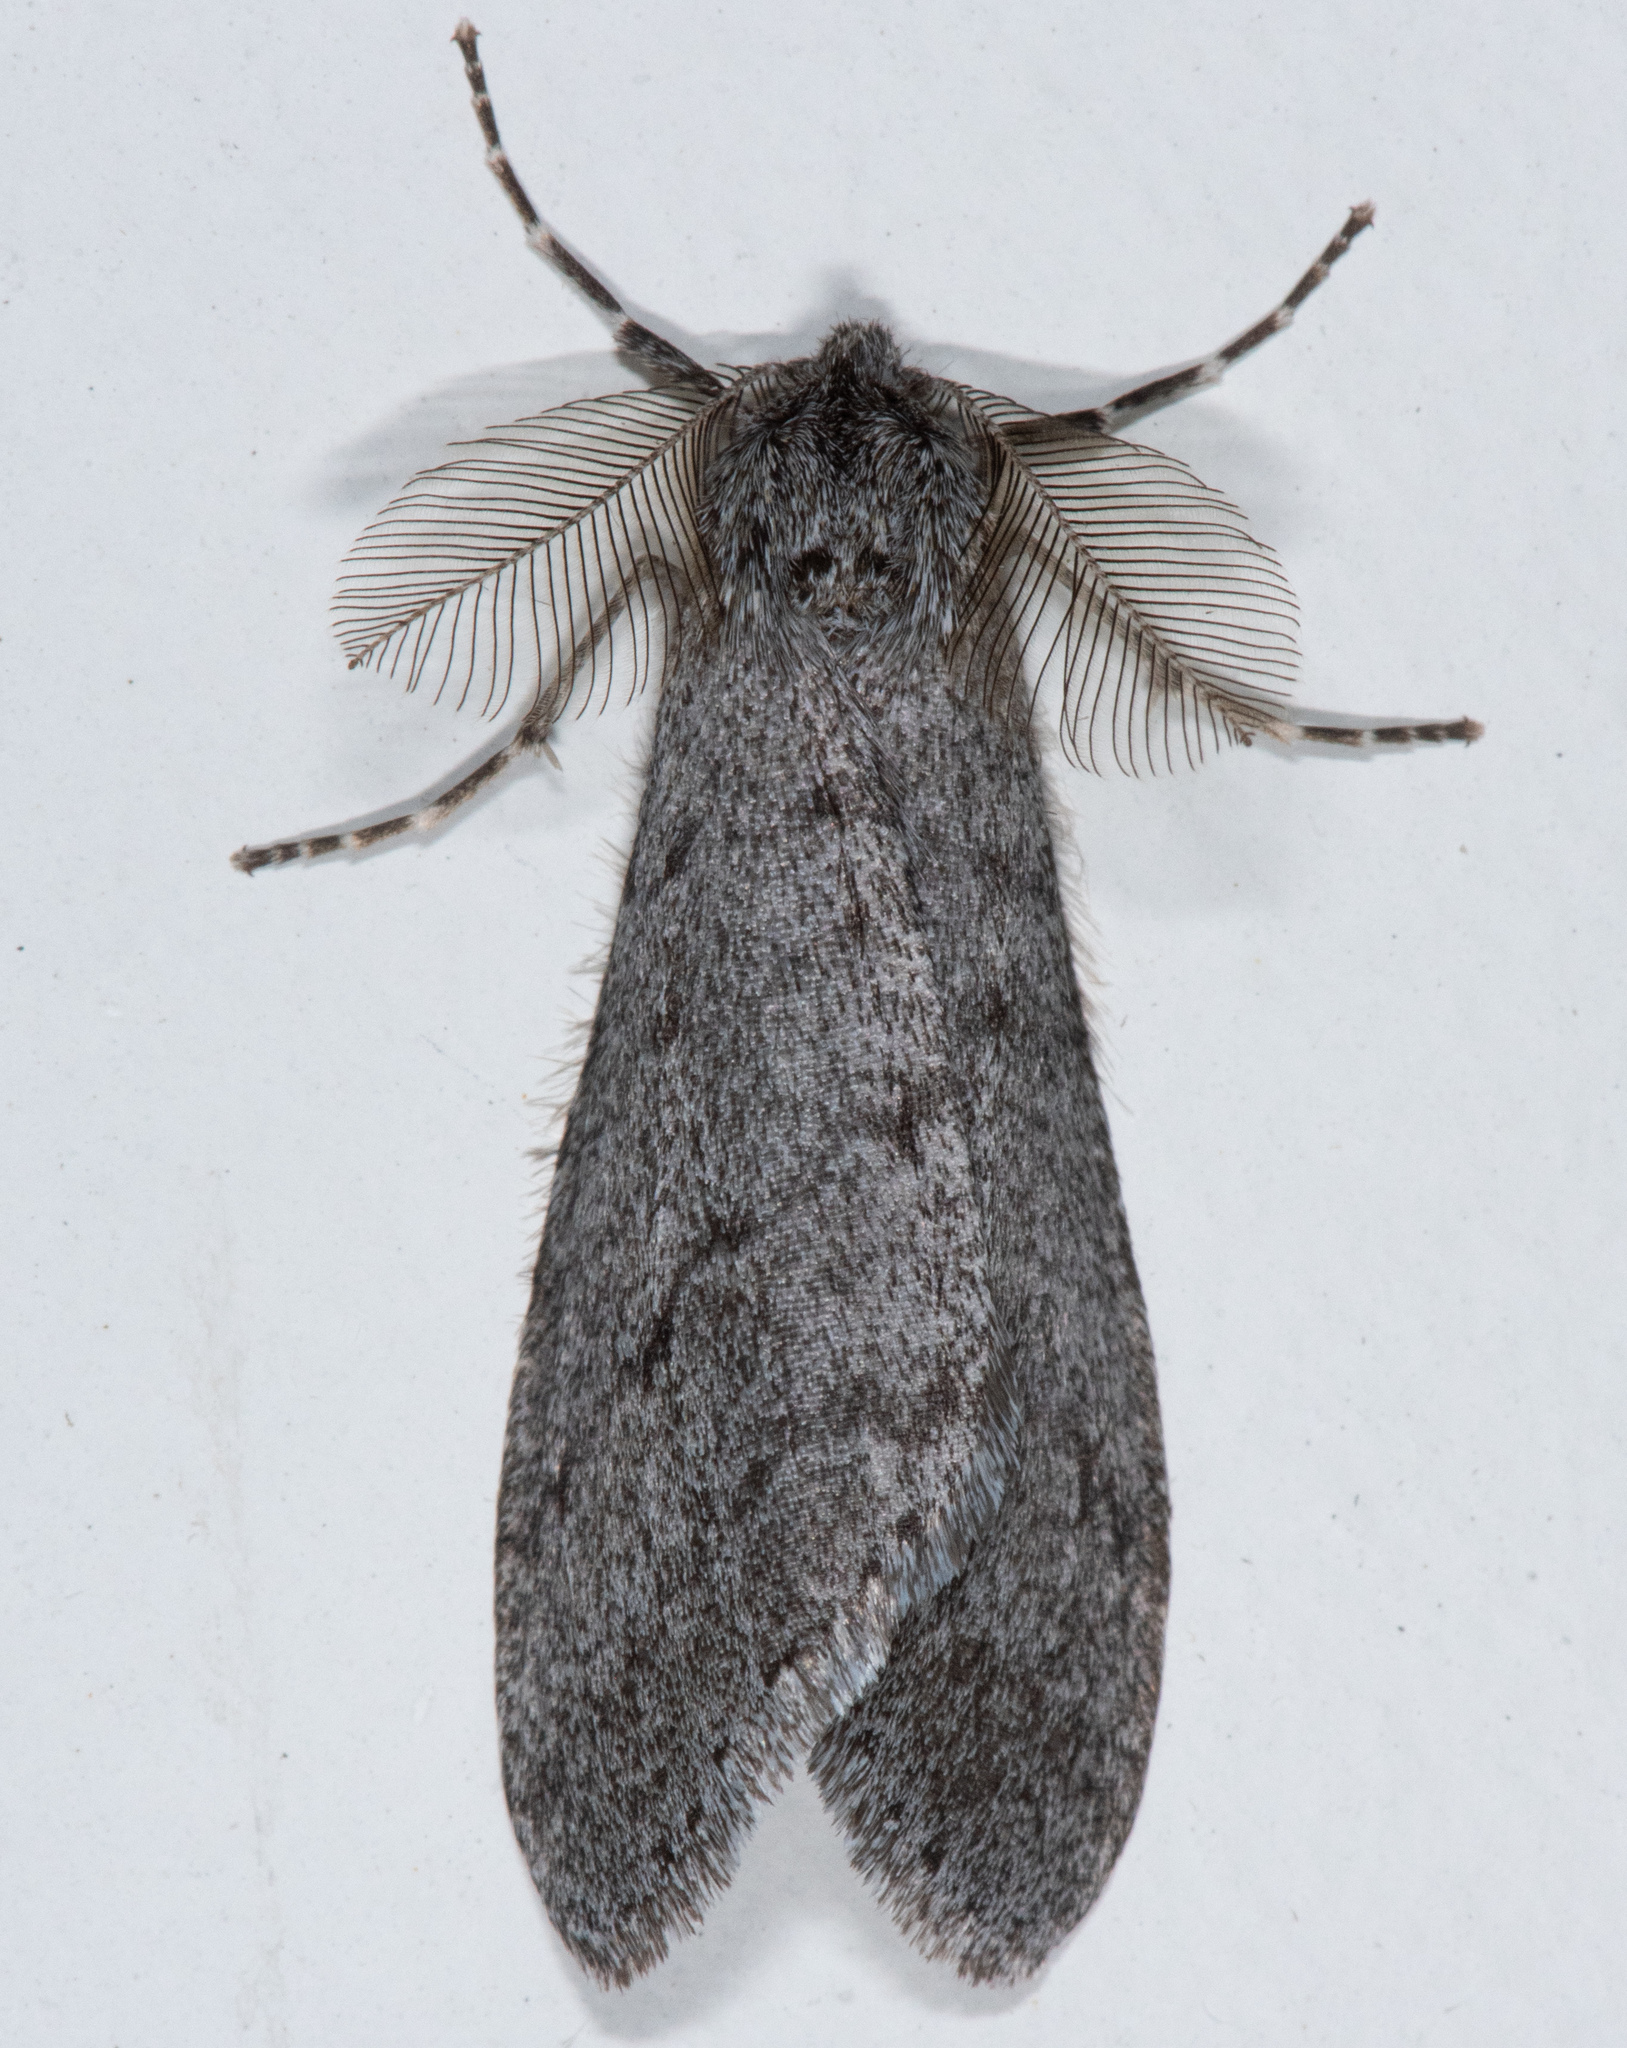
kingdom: Animalia
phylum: Arthropoda
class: Insecta
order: Lepidoptera
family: Geometridae
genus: Phigalia
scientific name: Phigalia plumogeraria
